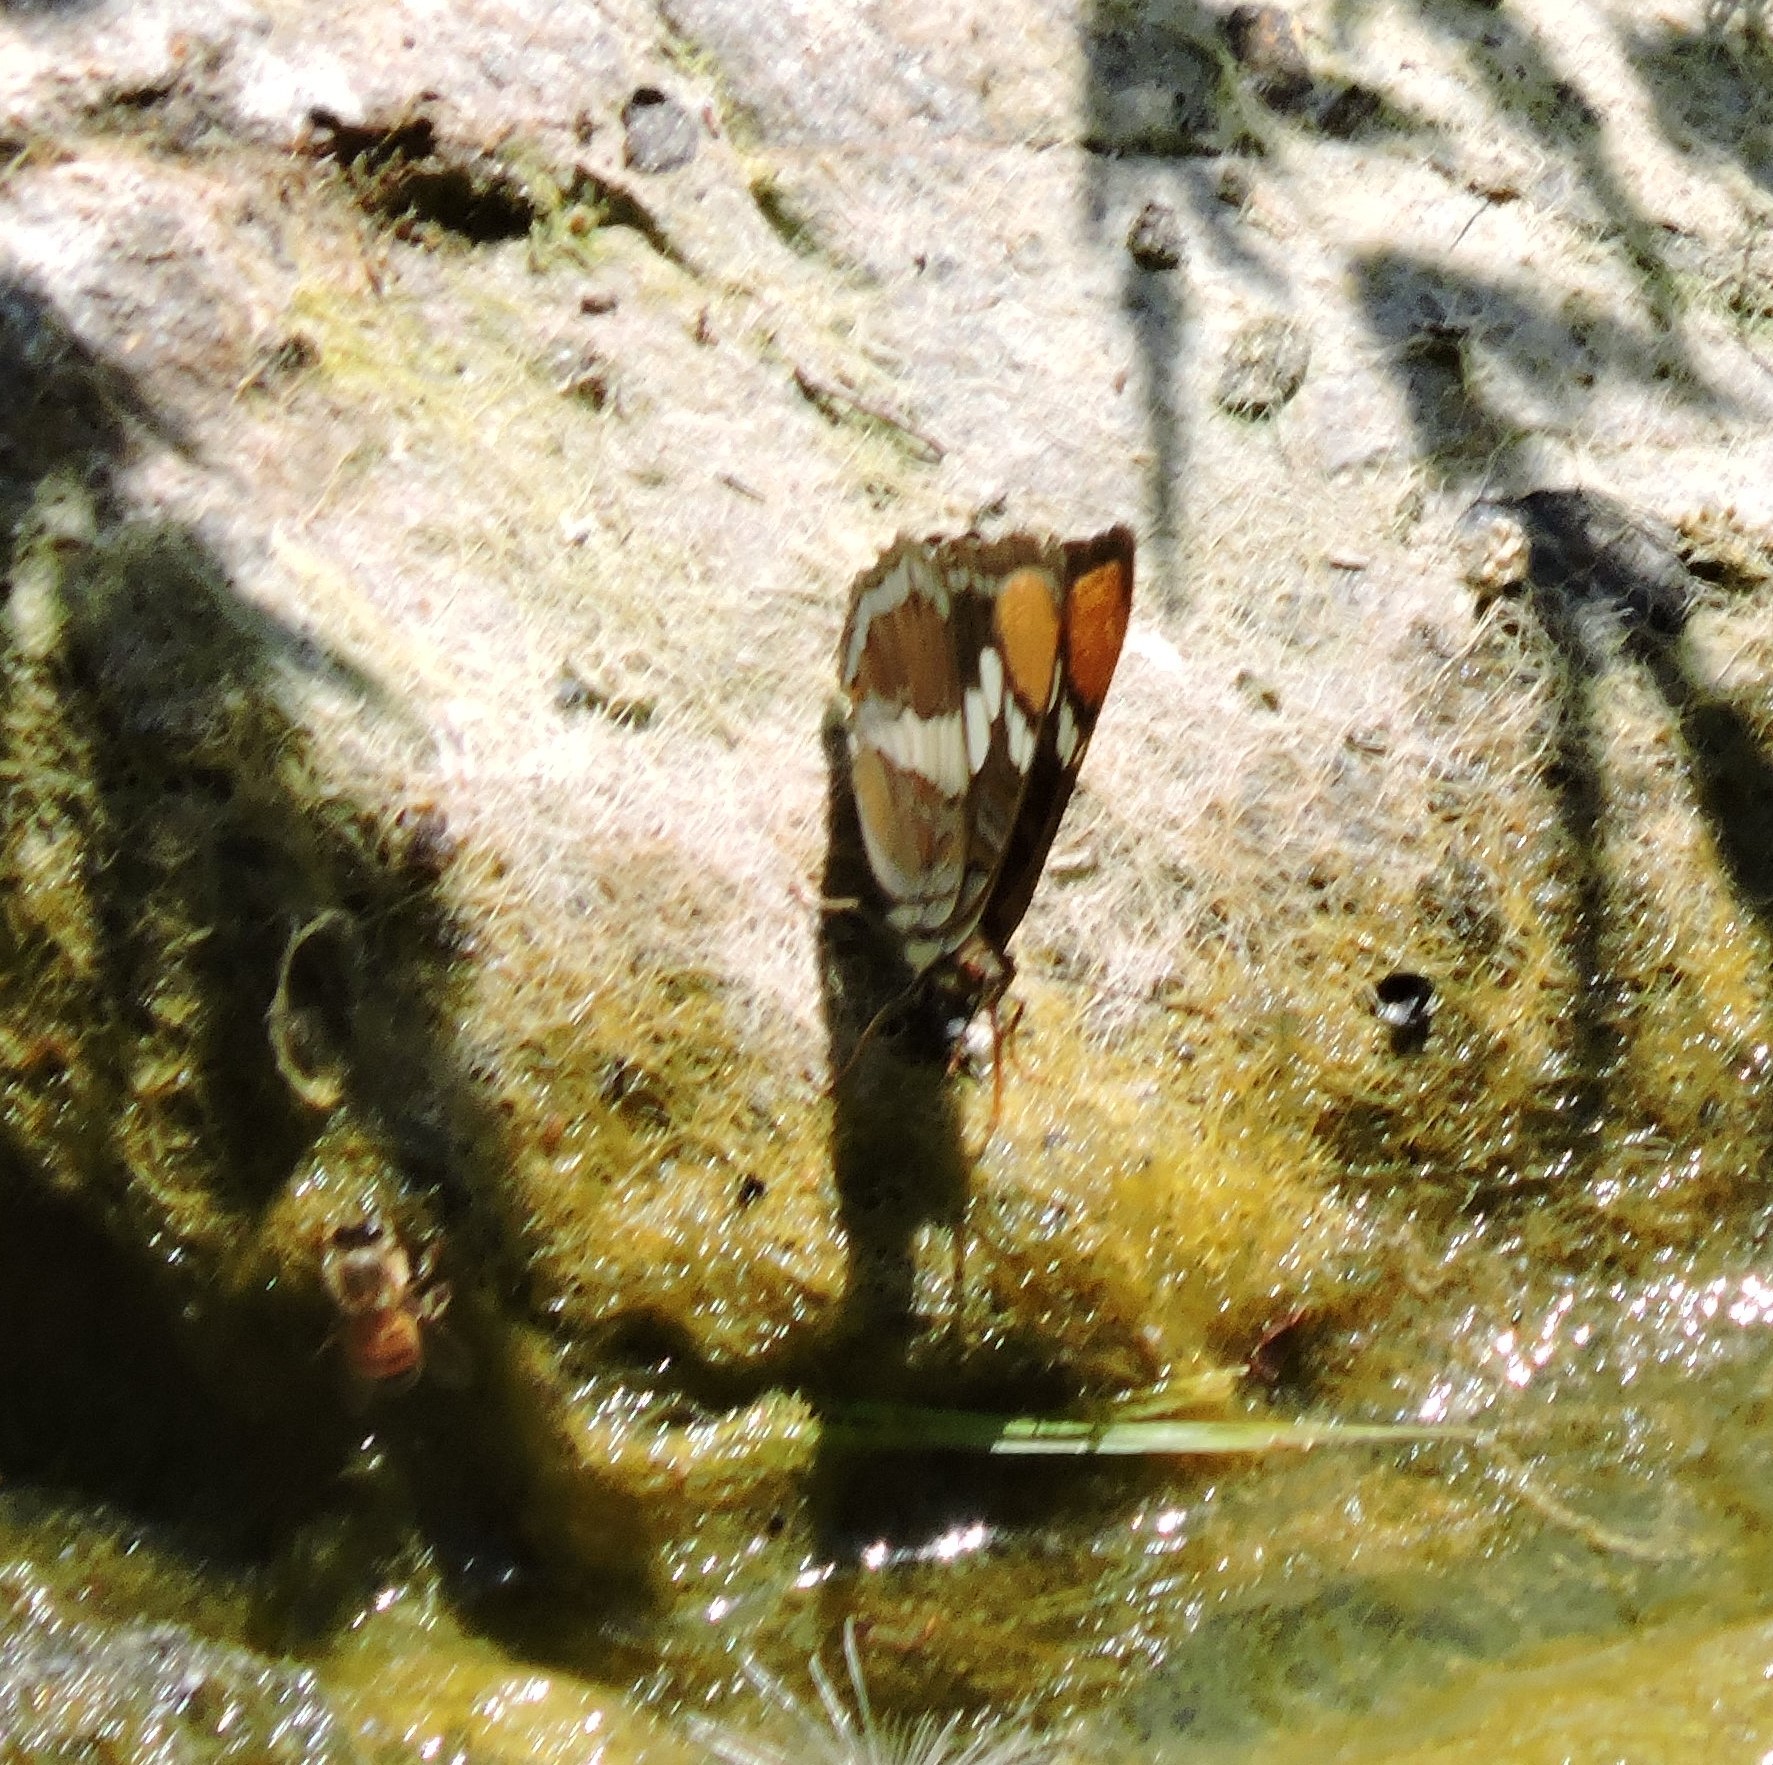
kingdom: Animalia
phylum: Arthropoda
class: Insecta
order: Lepidoptera
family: Nymphalidae
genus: Limenitis
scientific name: Limenitis bredowii
